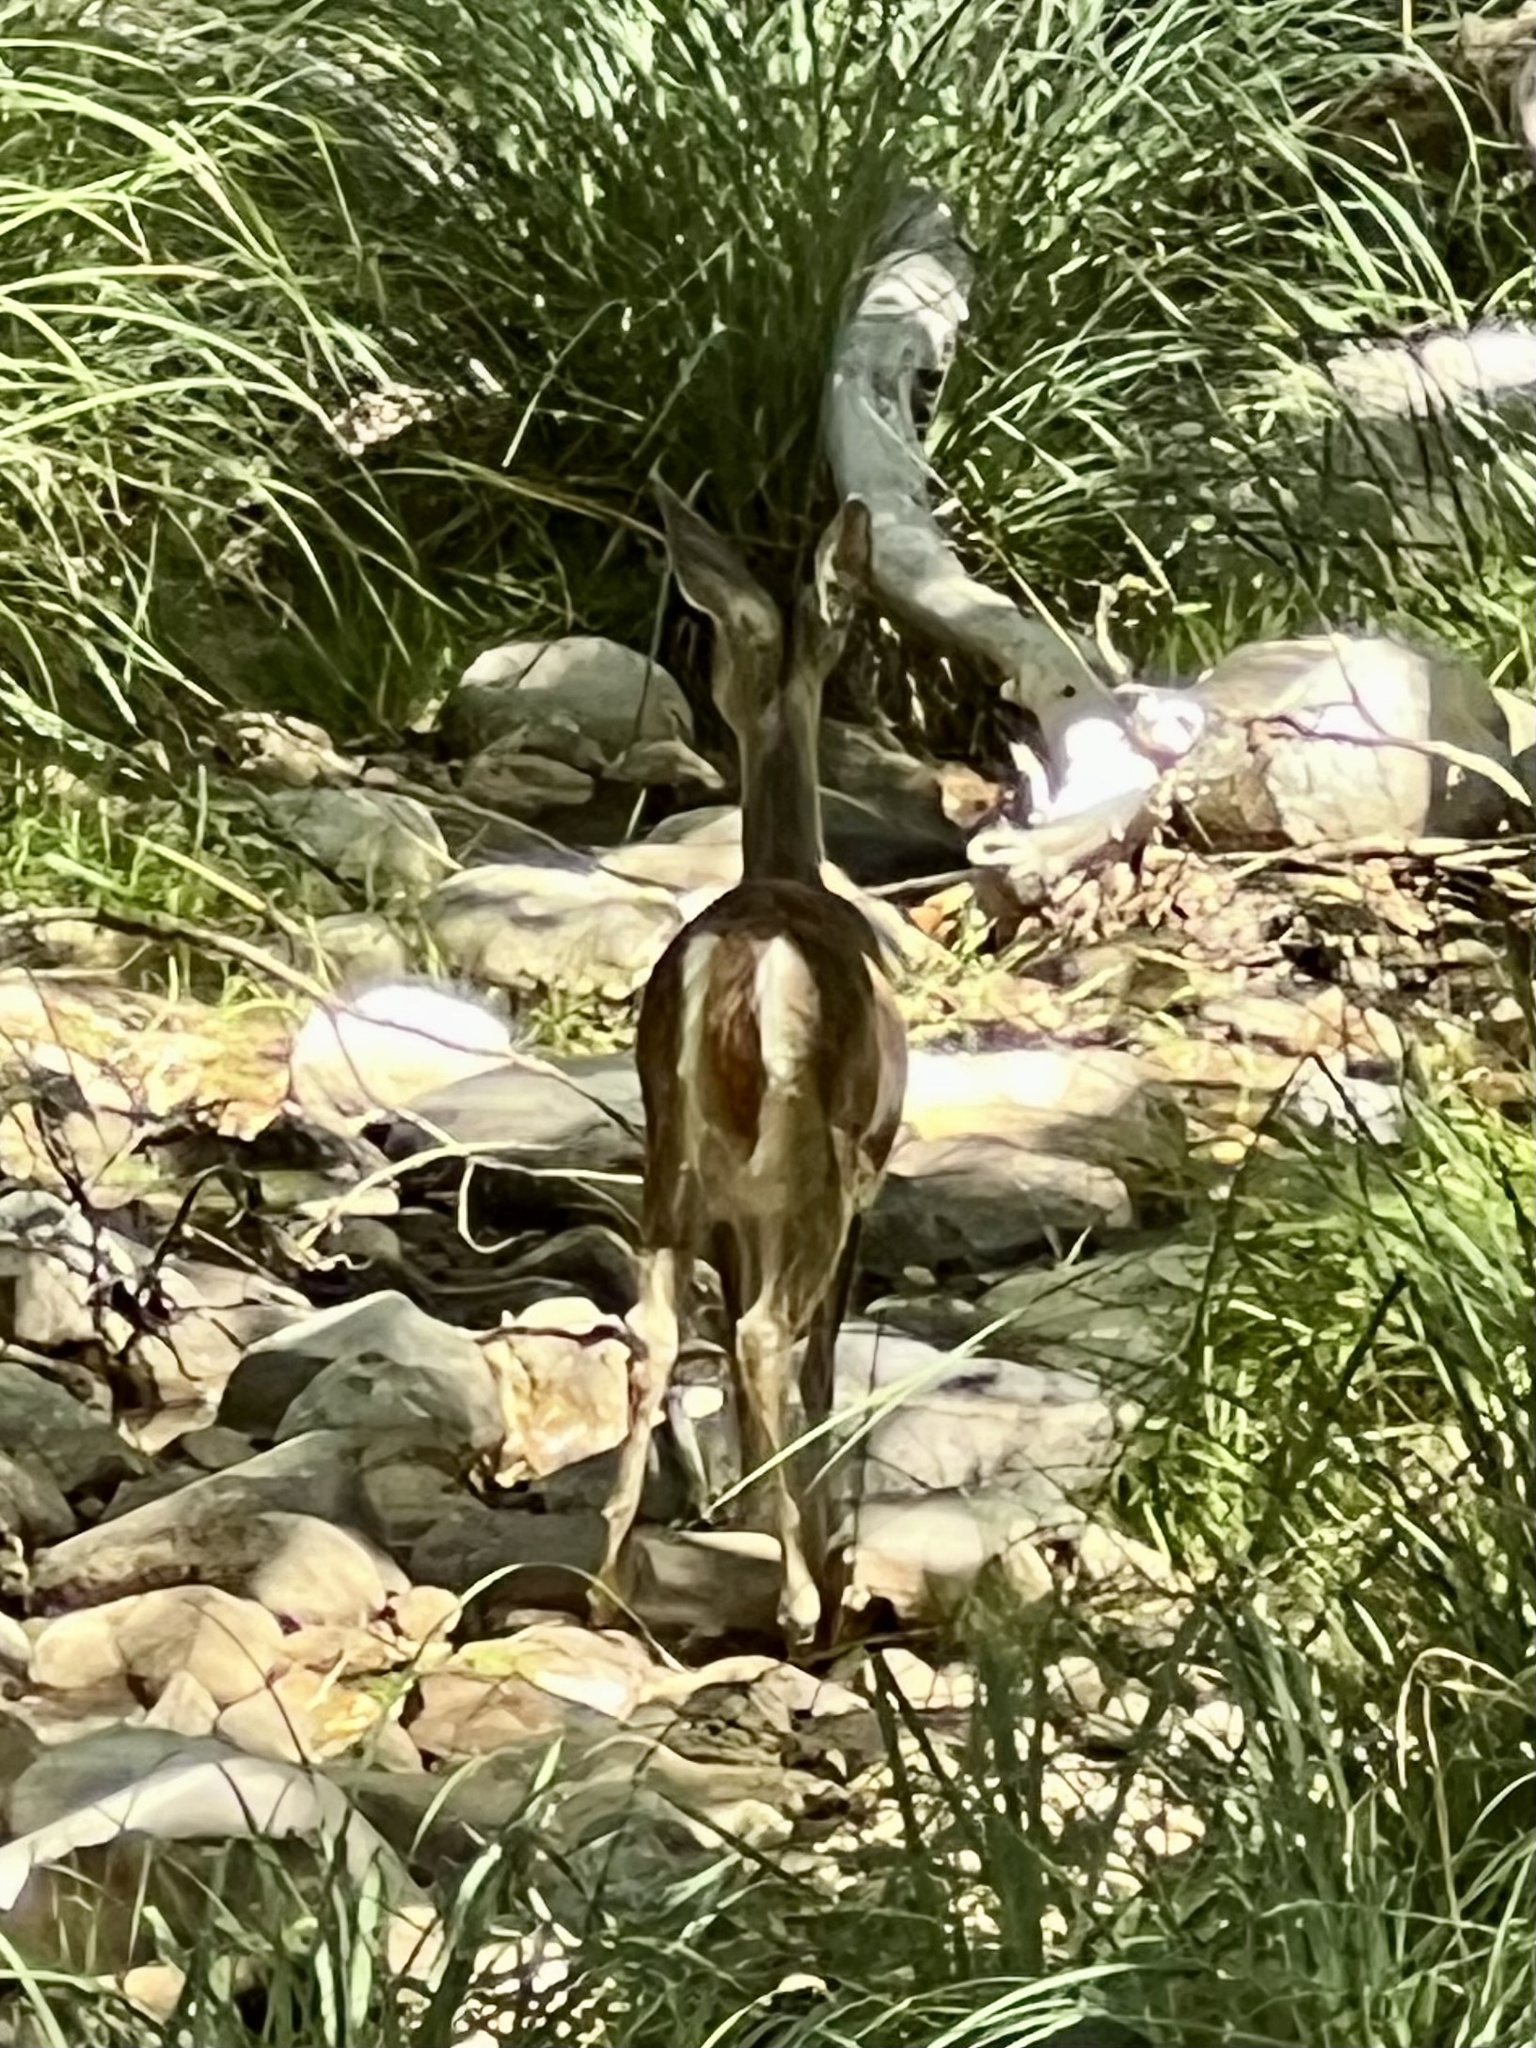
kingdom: Animalia
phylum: Chordata
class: Mammalia
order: Artiodactyla
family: Cervidae
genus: Odocoileus
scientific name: Odocoileus virginianus
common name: White-tailed deer
